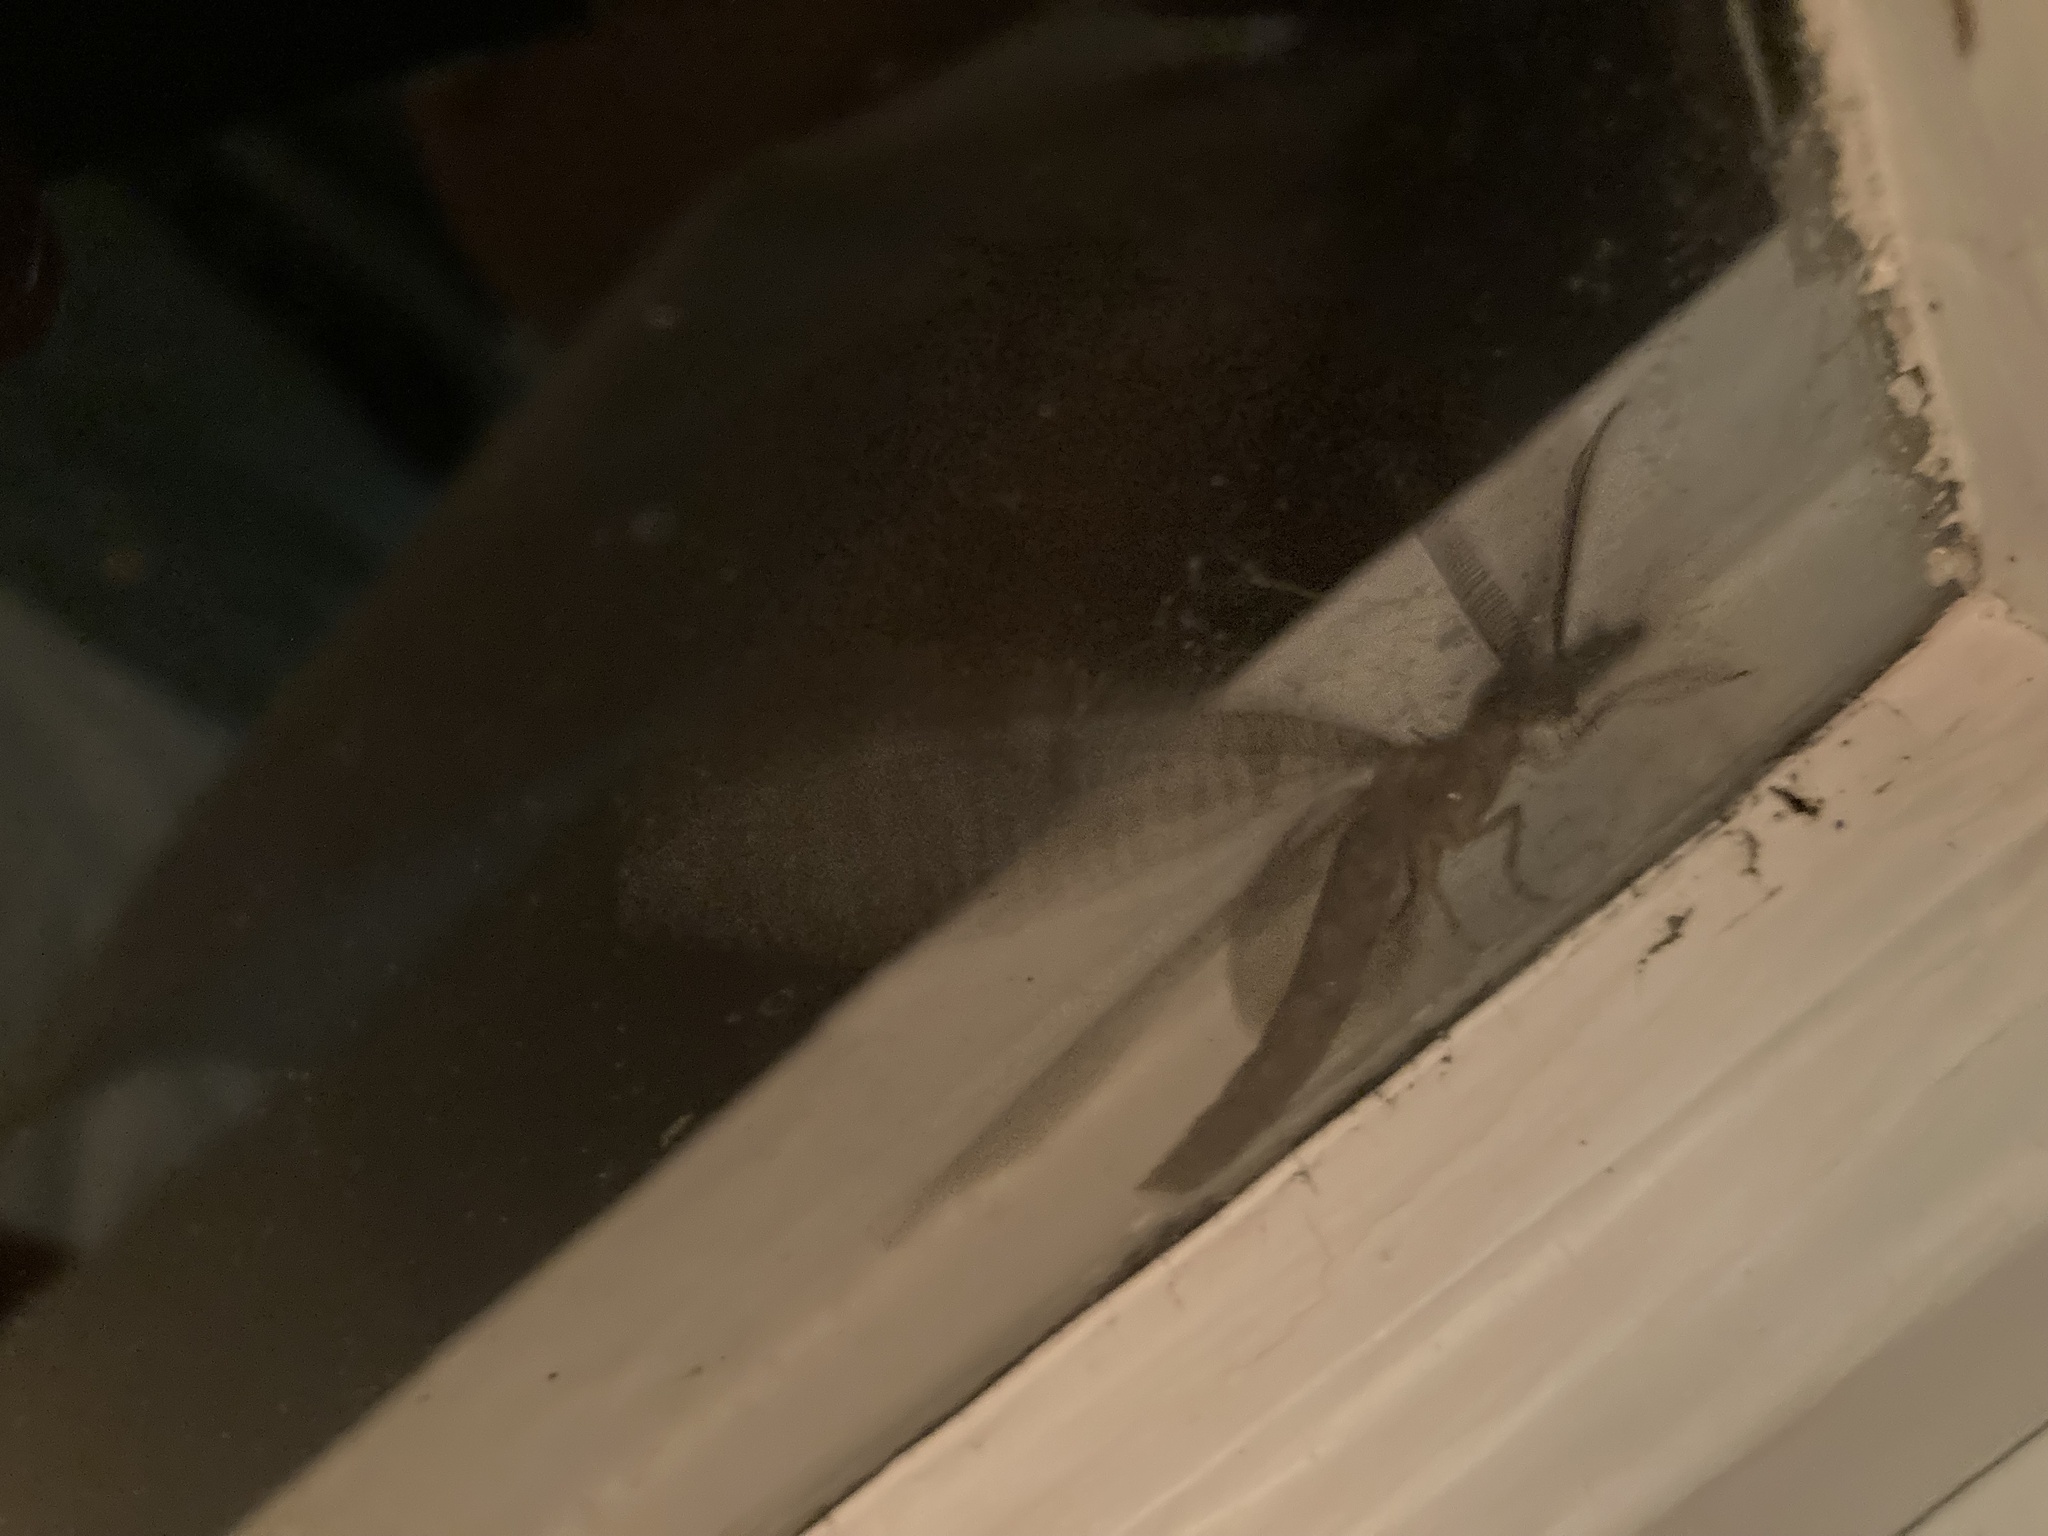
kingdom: Animalia
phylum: Arthropoda
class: Insecta
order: Megaloptera
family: Corydalidae
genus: Chauliodes
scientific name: Chauliodes
